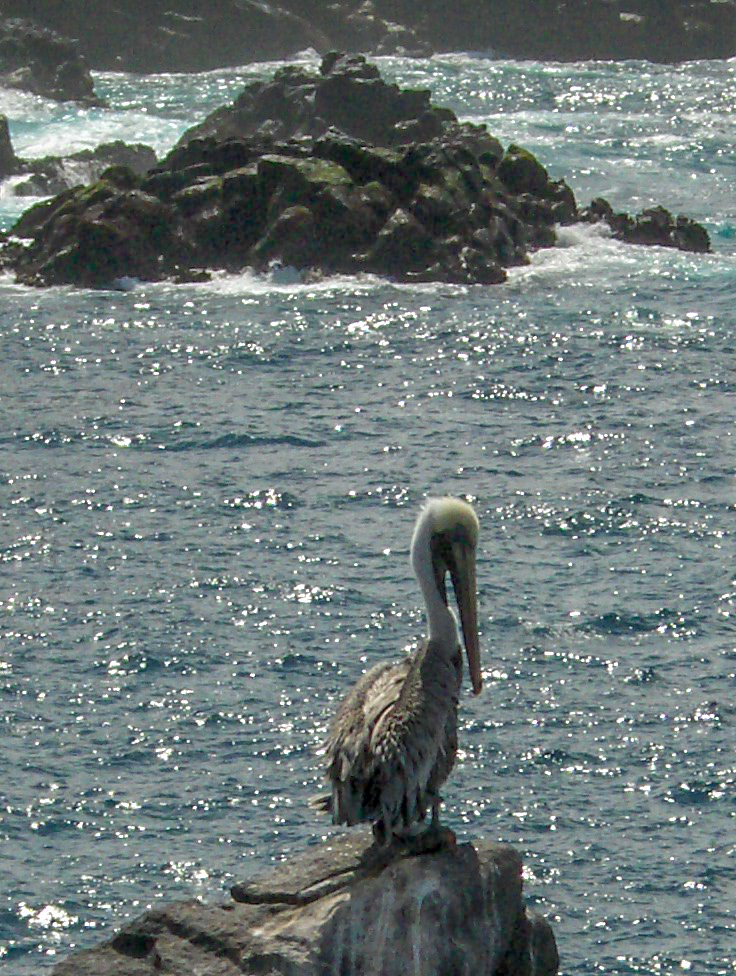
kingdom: Animalia
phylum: Chordata
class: Aves
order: Pelecaniformes
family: Pelecanidae
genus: Pelecanus
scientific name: Pelecanus occidentalis
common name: Brown pelican
